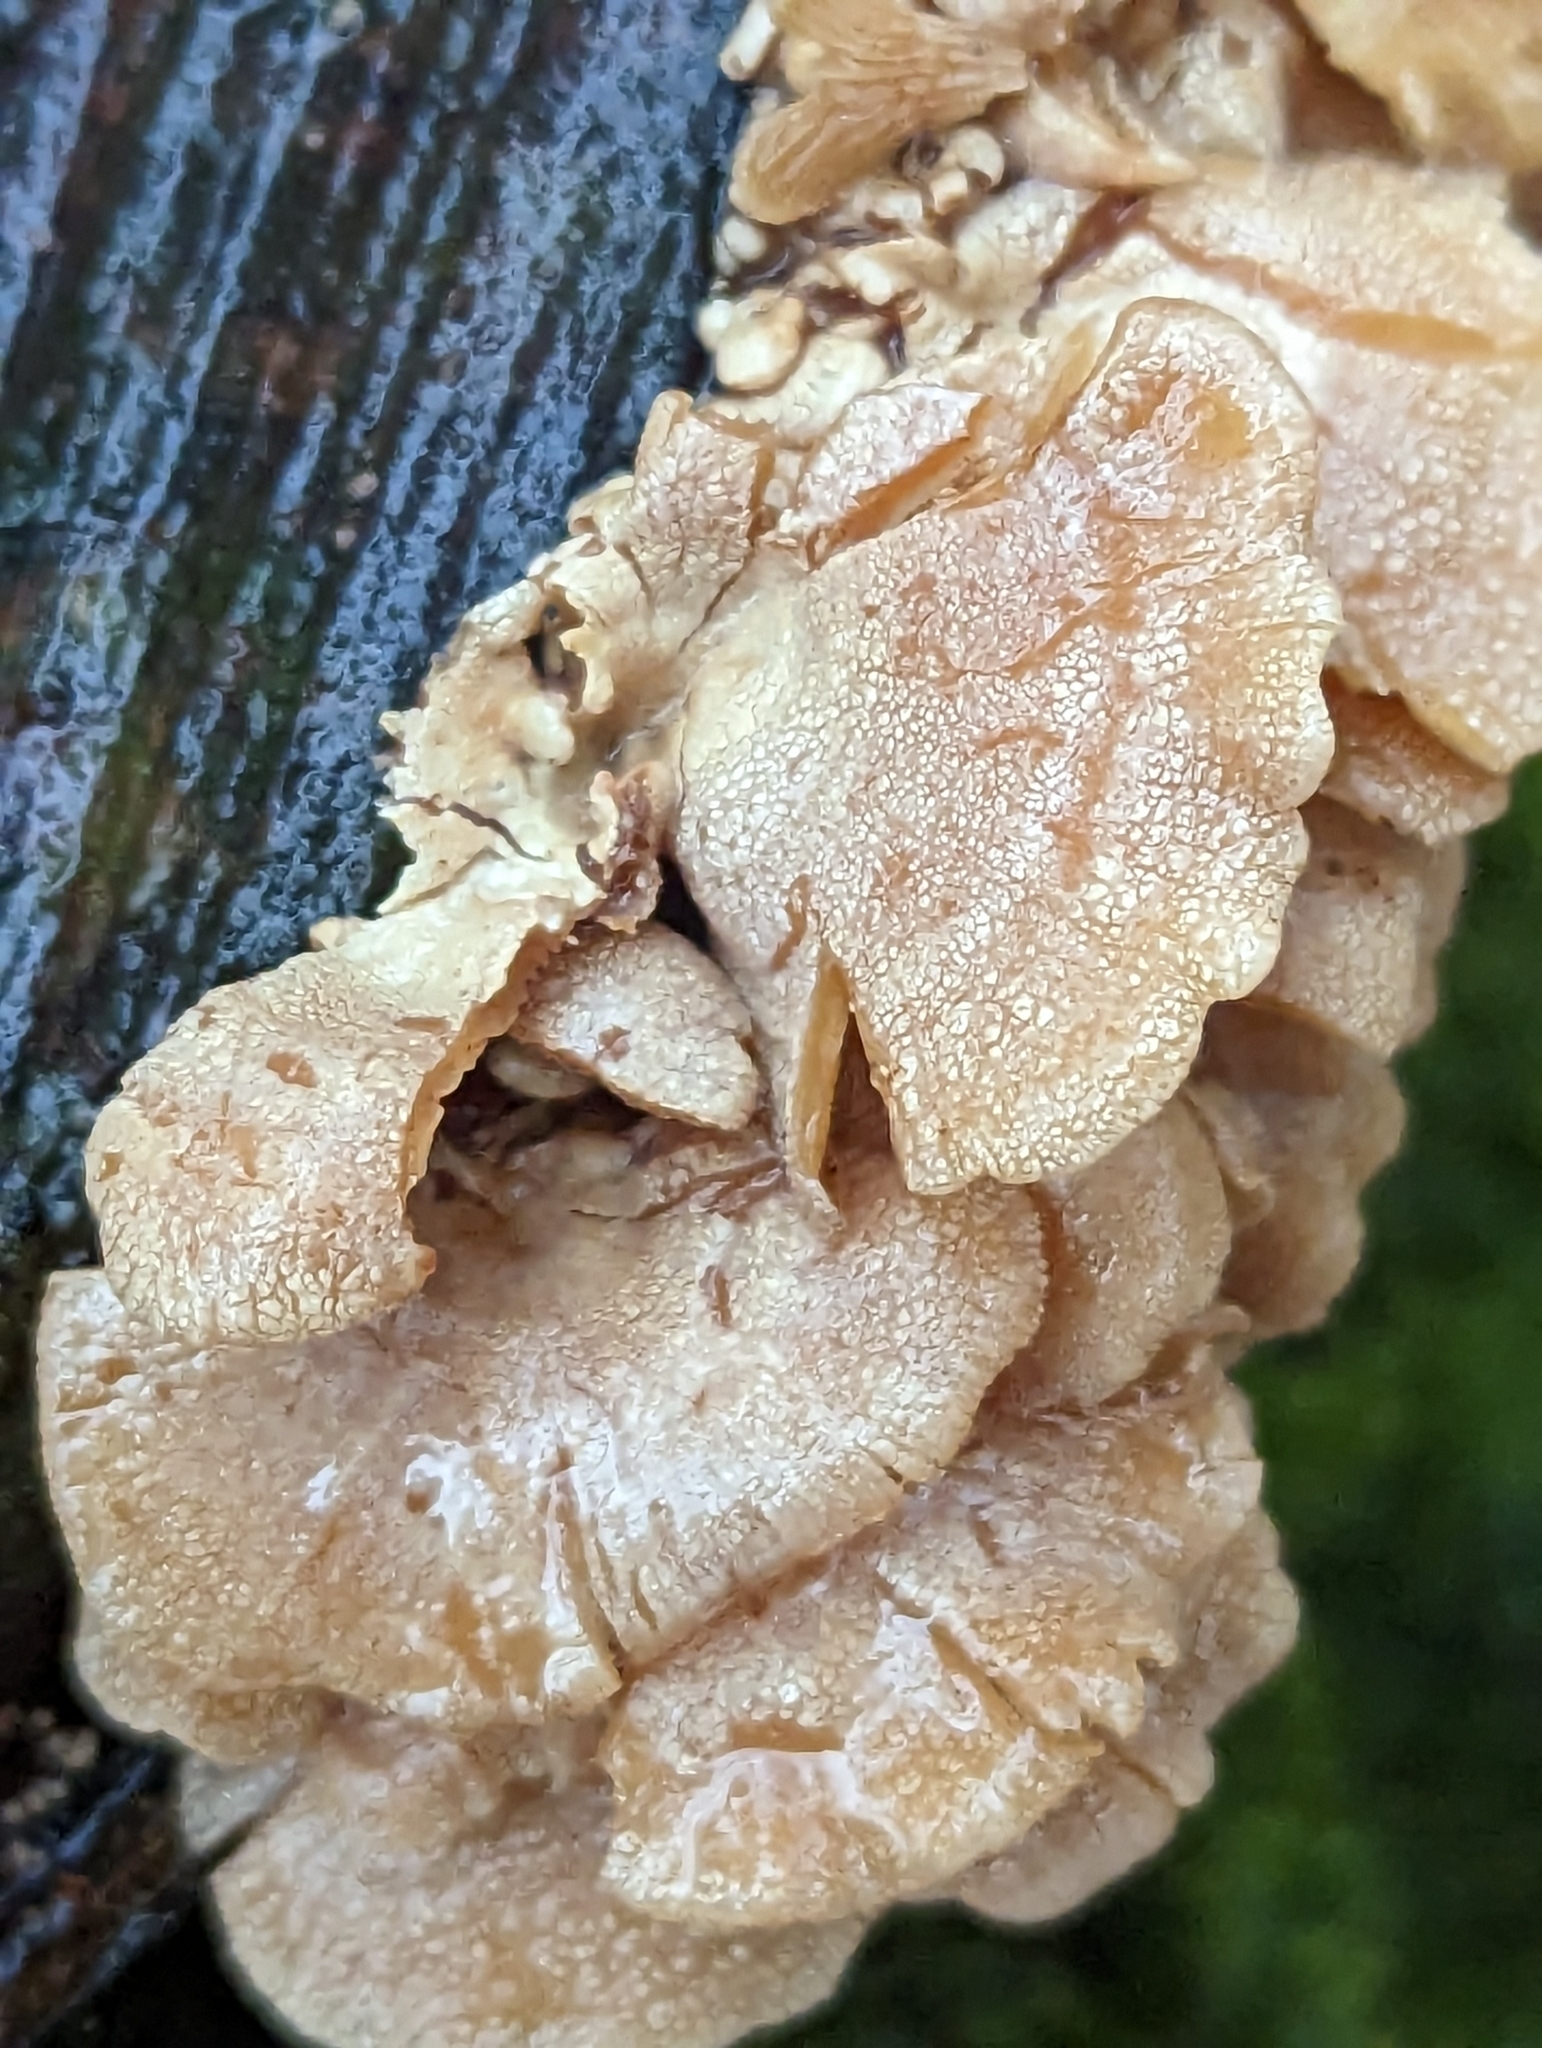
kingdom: Fungi
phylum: Basidiomycota
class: Agaricomycetes
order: Agaricales
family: Mycenaceae
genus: Panellus
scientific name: Panellus stipticus
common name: Bitter oysterling
